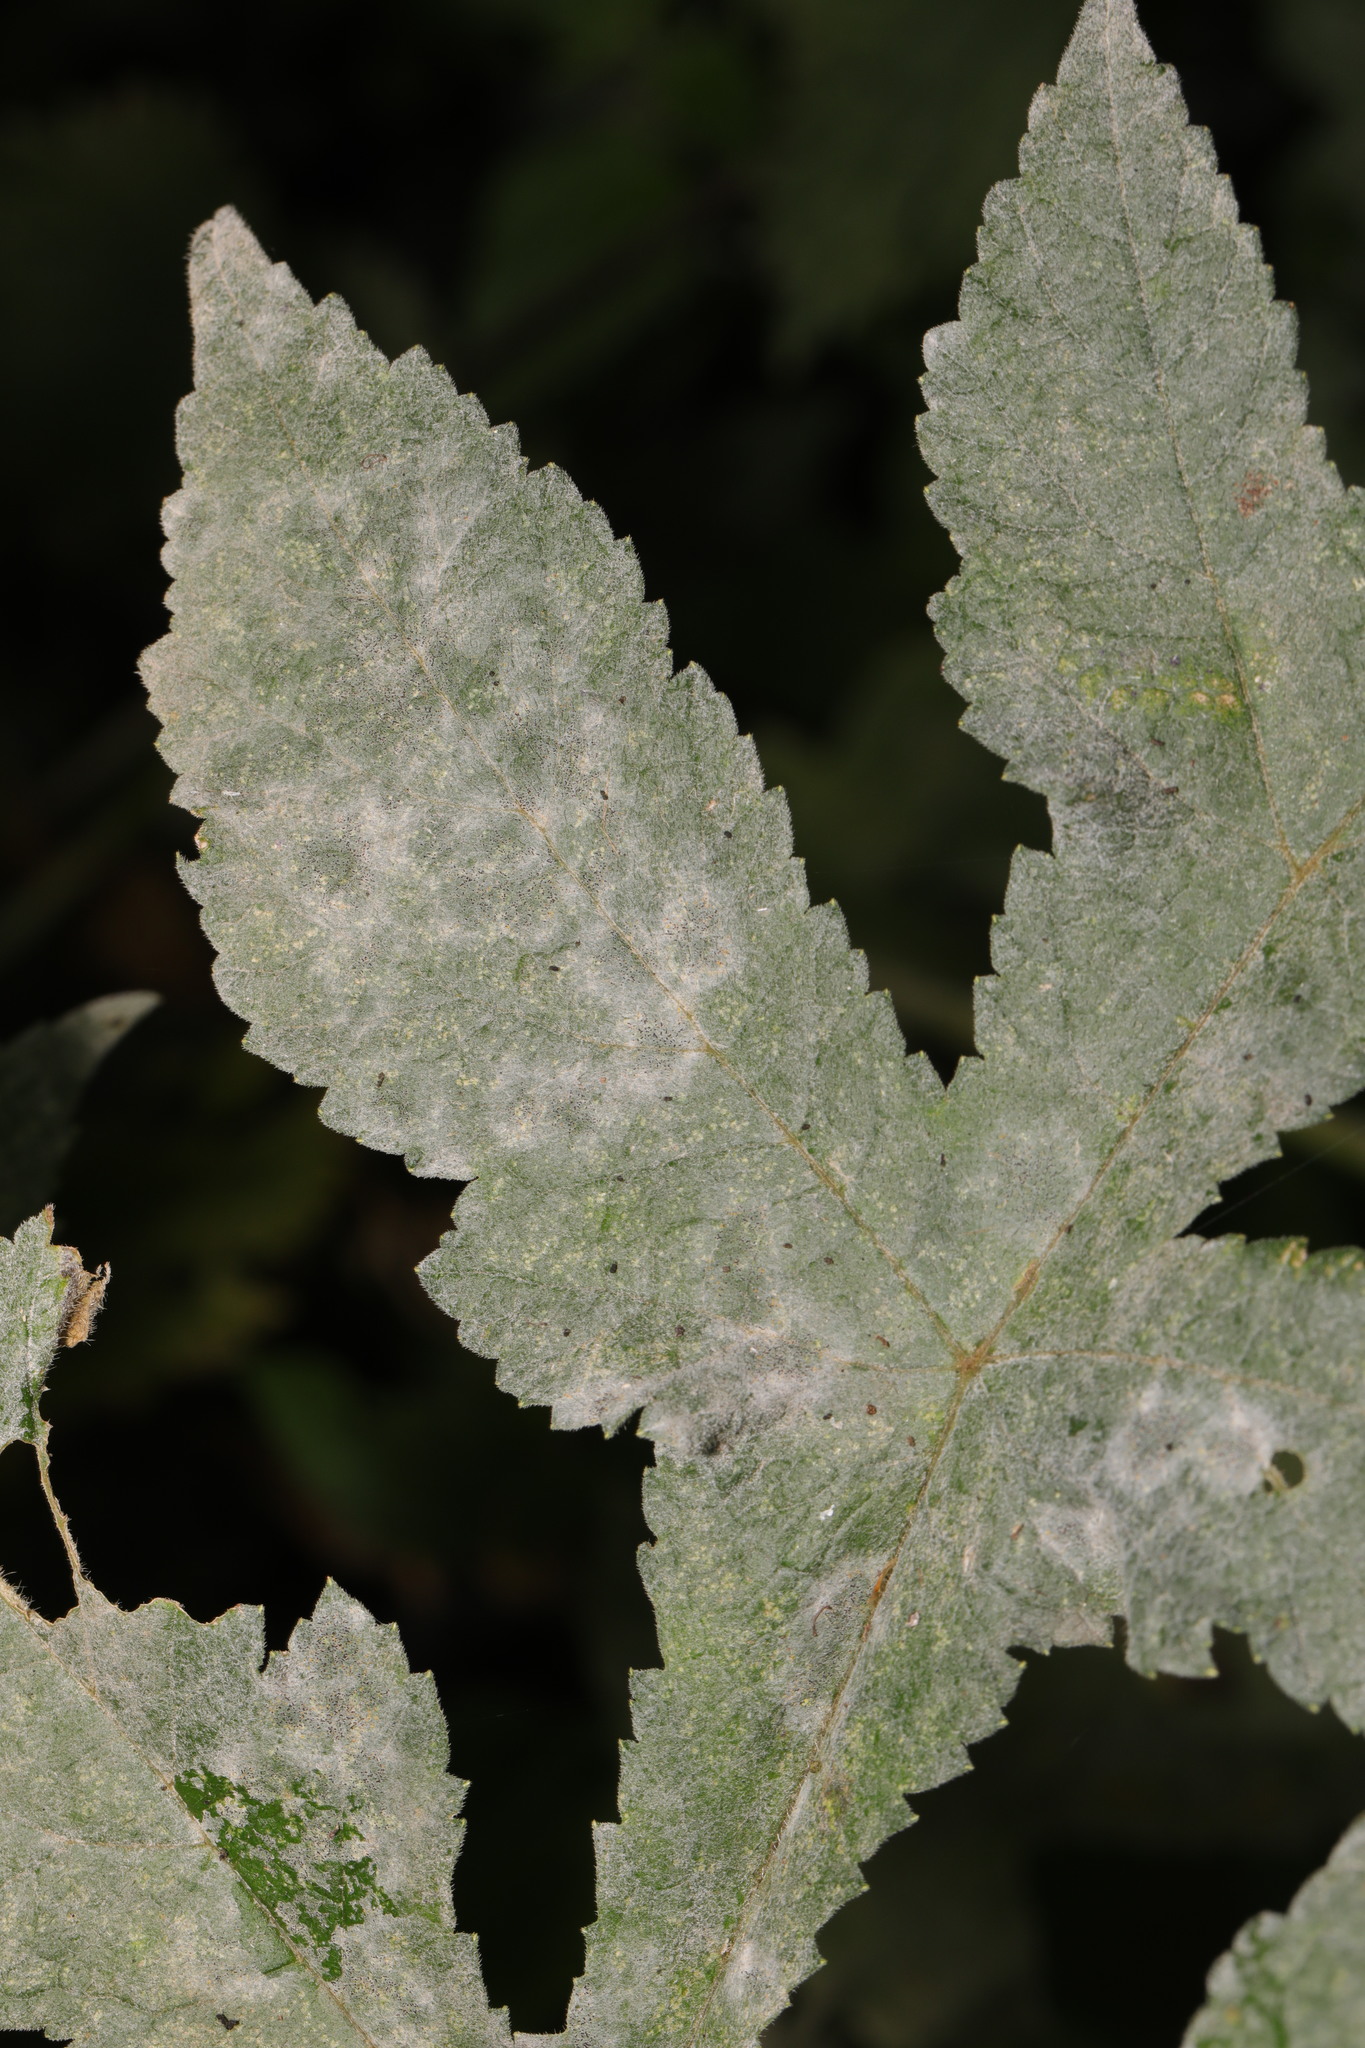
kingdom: Fungi
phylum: Ascomycota
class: Leotiomycetes
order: Helotiales
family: Erysiphaceae
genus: Erysiphe
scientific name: Erysiphe heraclei
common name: Umbellifer mildew
